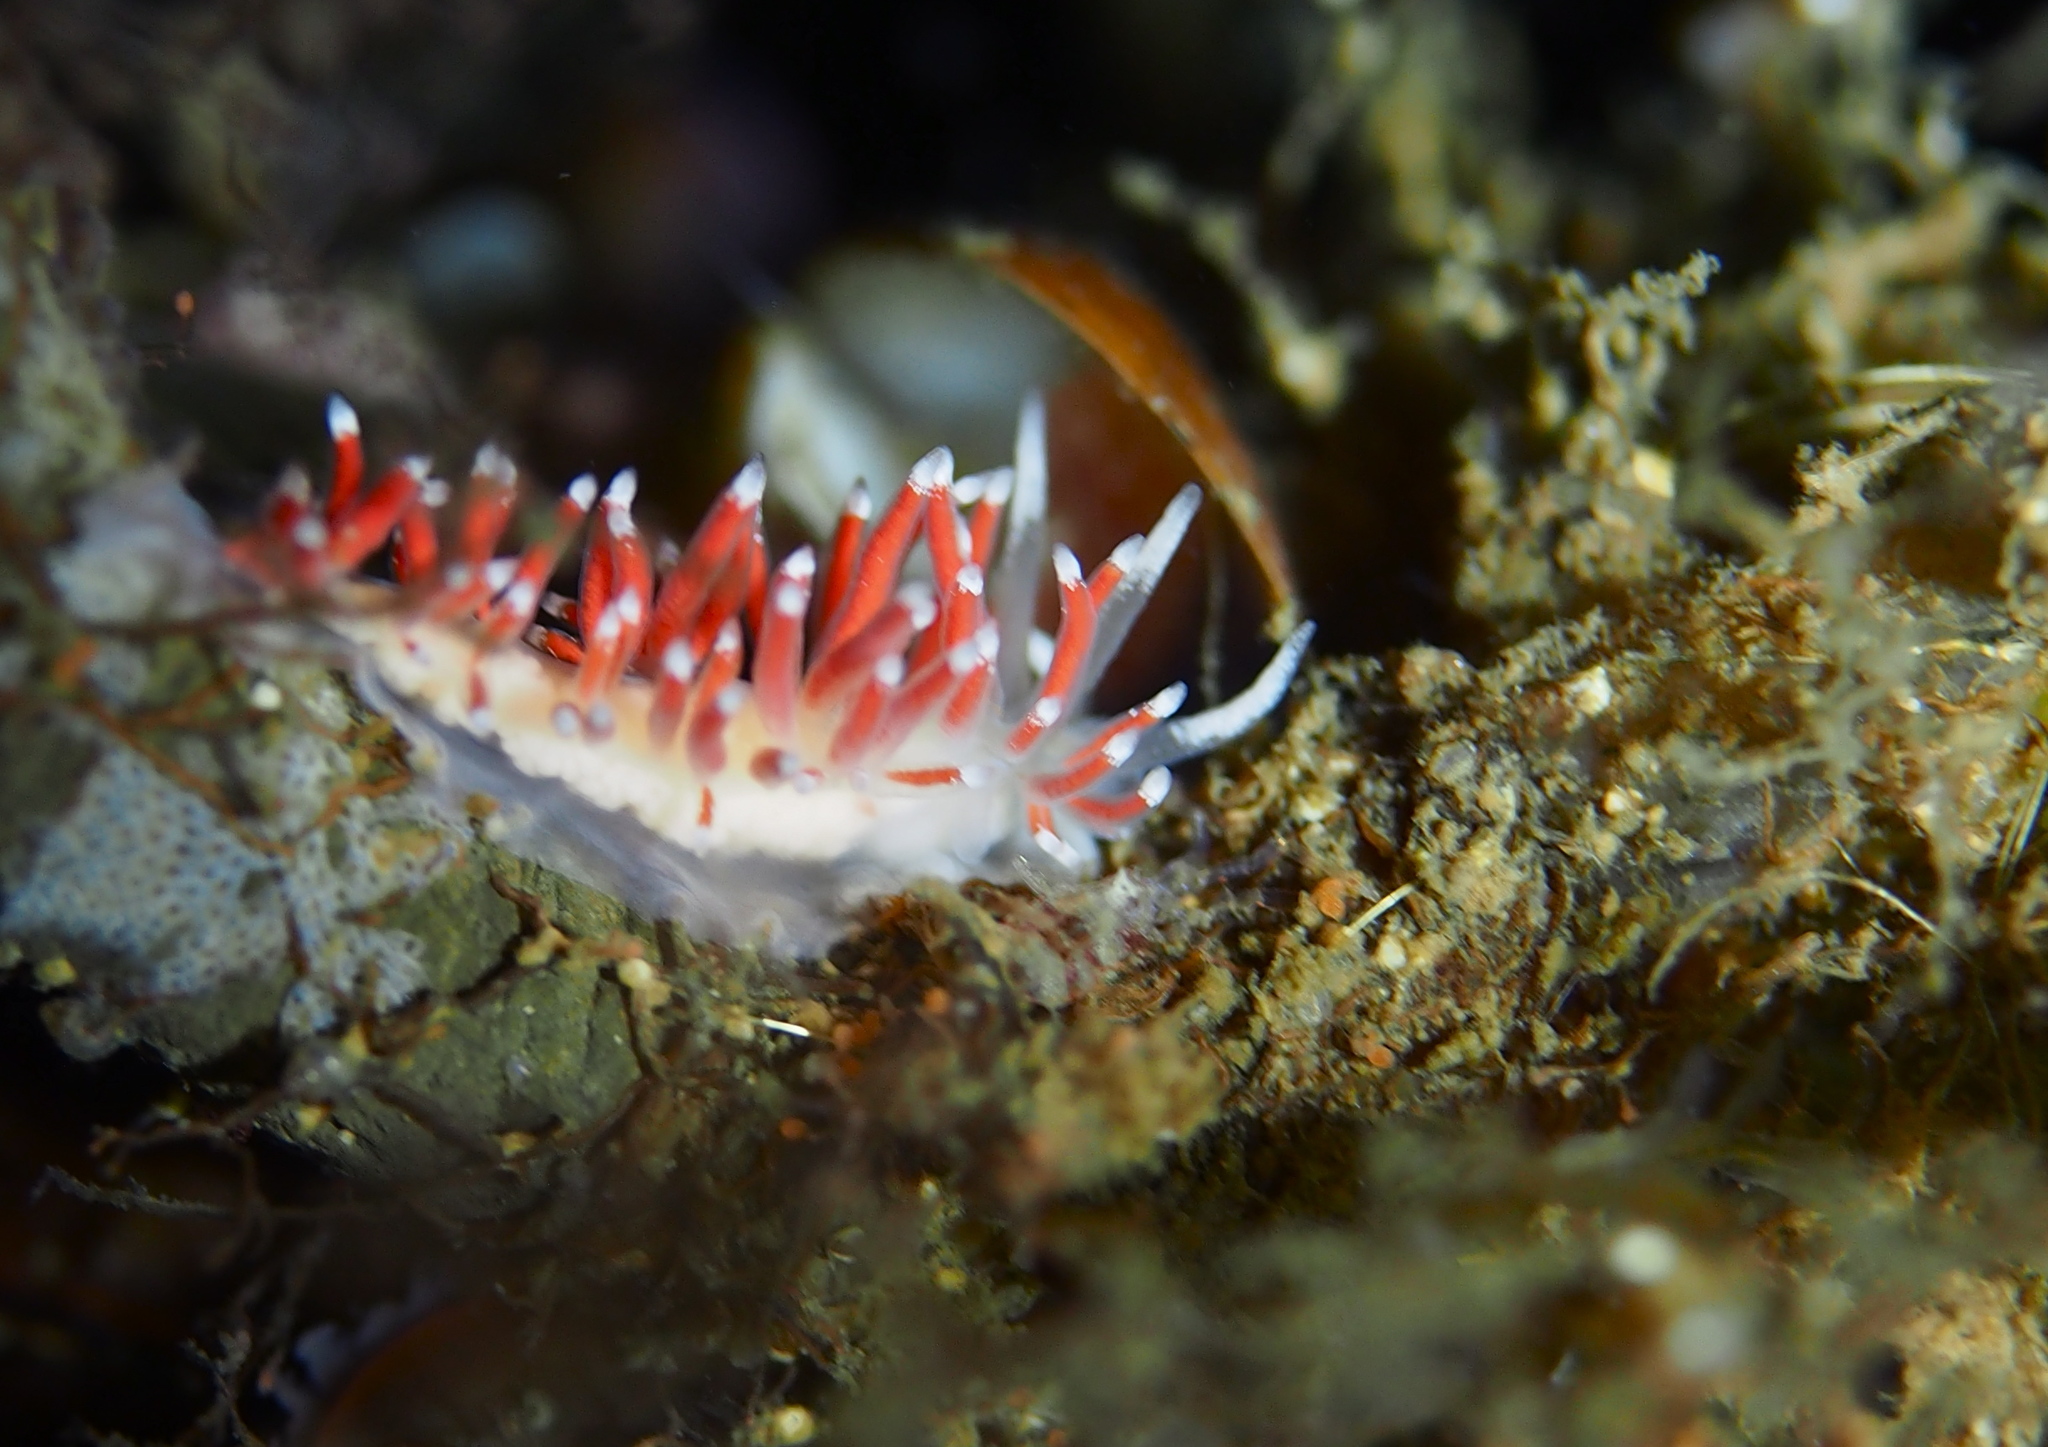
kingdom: Animalia
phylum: Mollusca
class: Gastropoda
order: Nudibranchia
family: Coryphellidae
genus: Coryphella
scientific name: Coryphella gracilis
